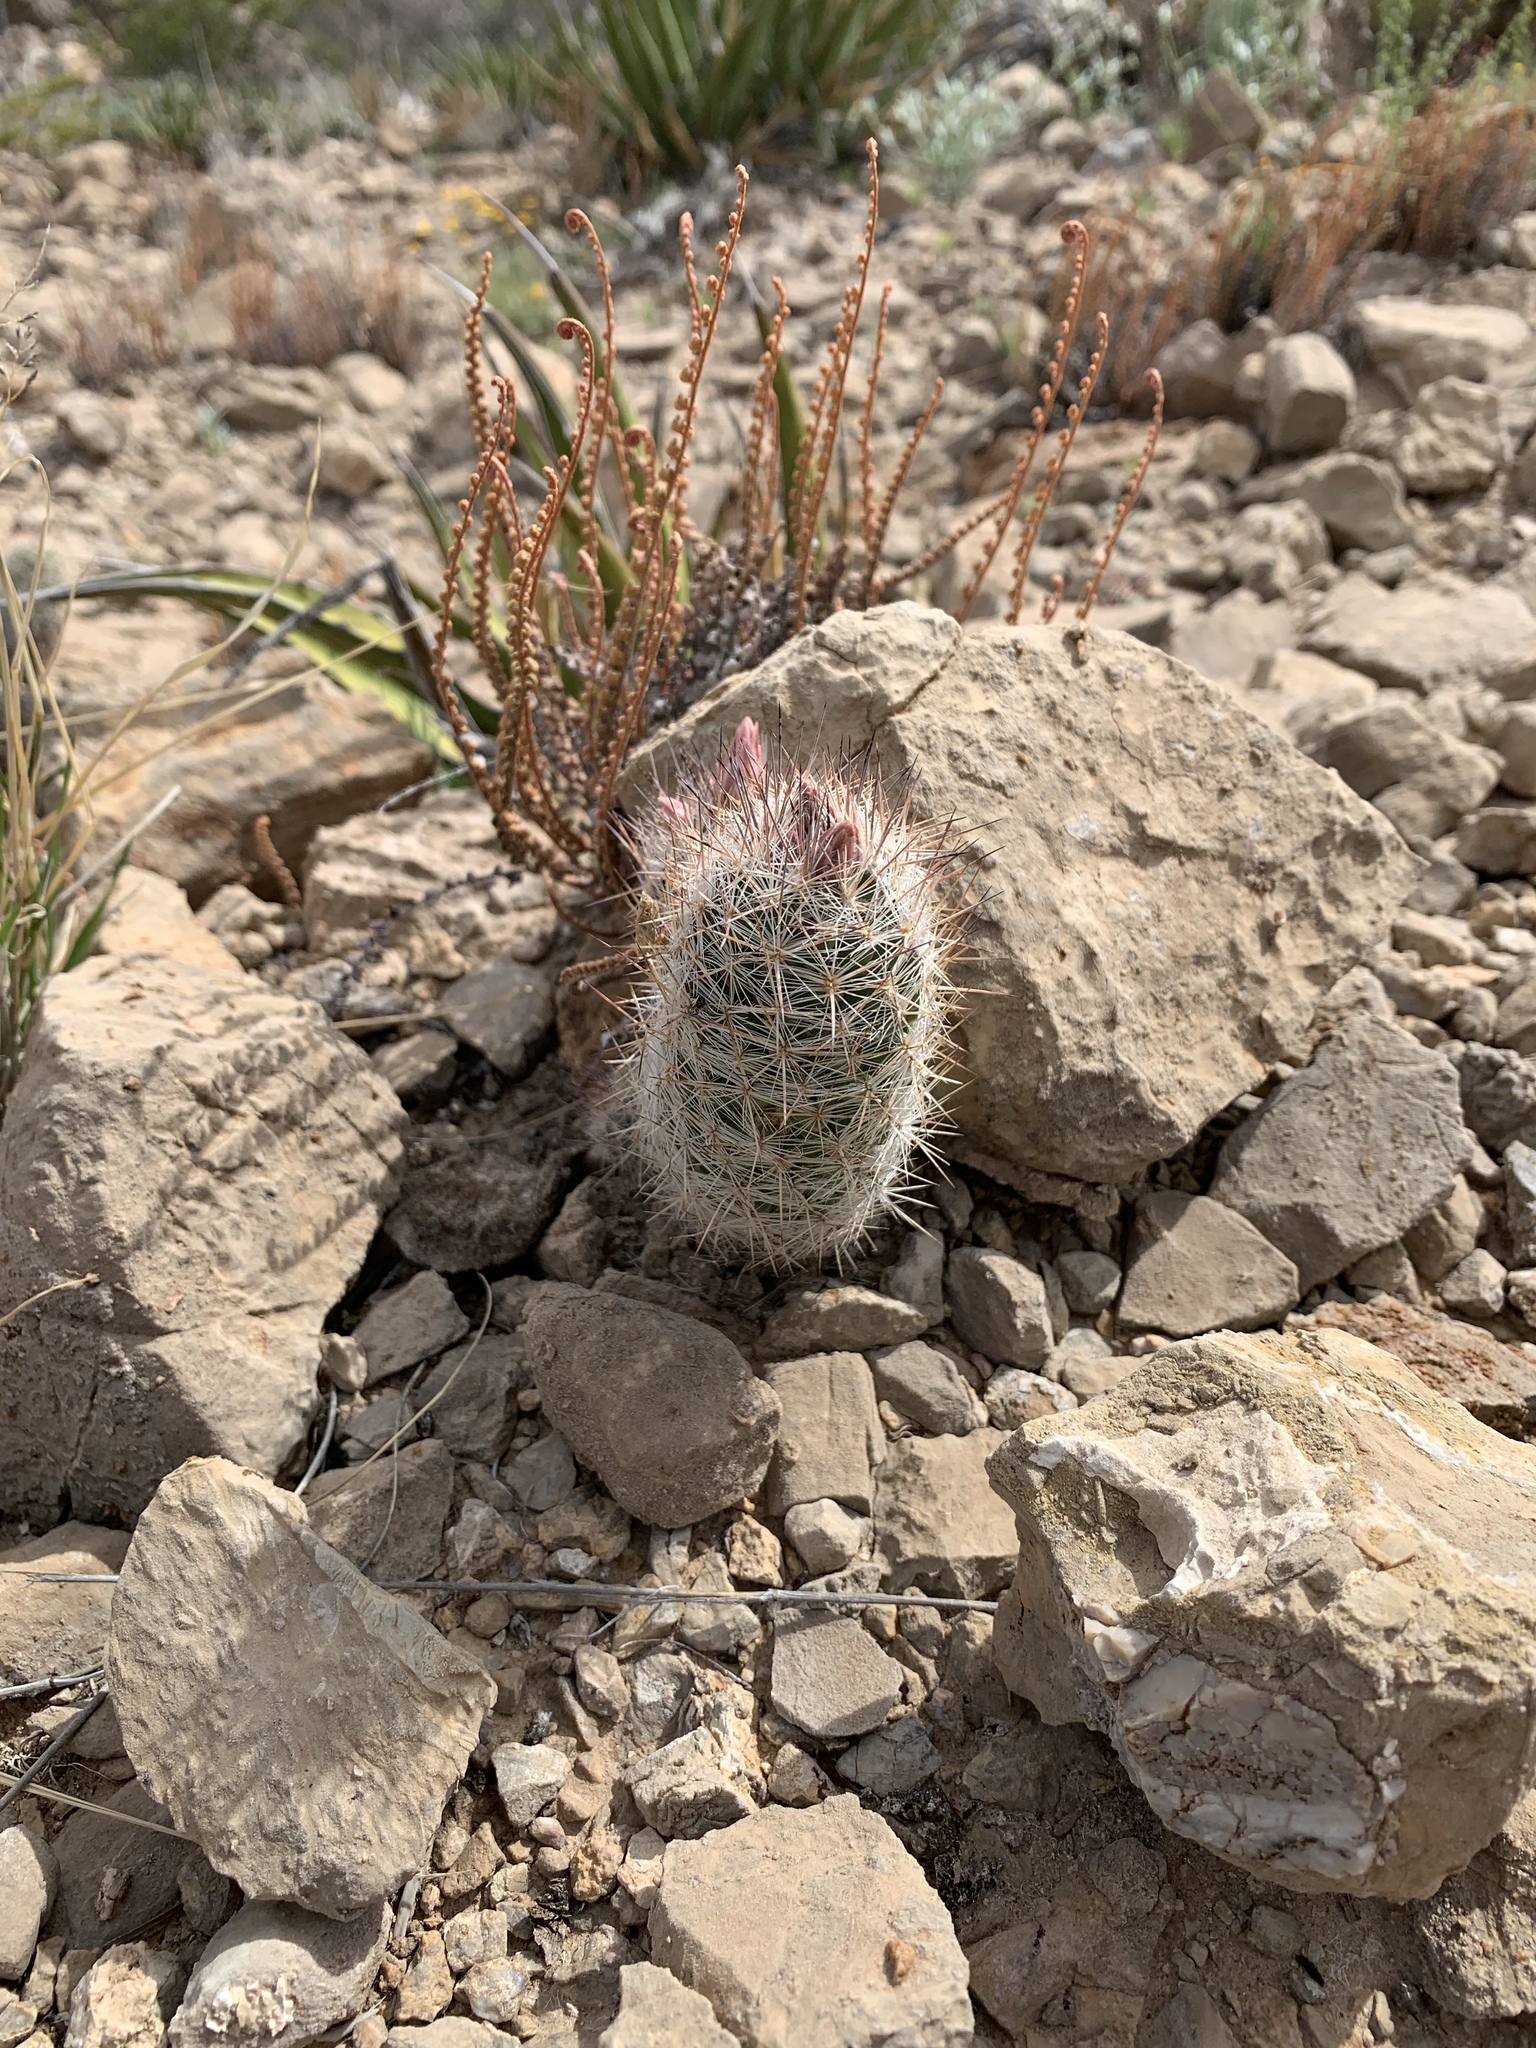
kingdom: Plantae
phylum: Tracheophyta
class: Magnoliopsida
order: Caryophyllales
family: Cactaceae
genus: Pelecyphora
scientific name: Pelecyphora tuberculosa
